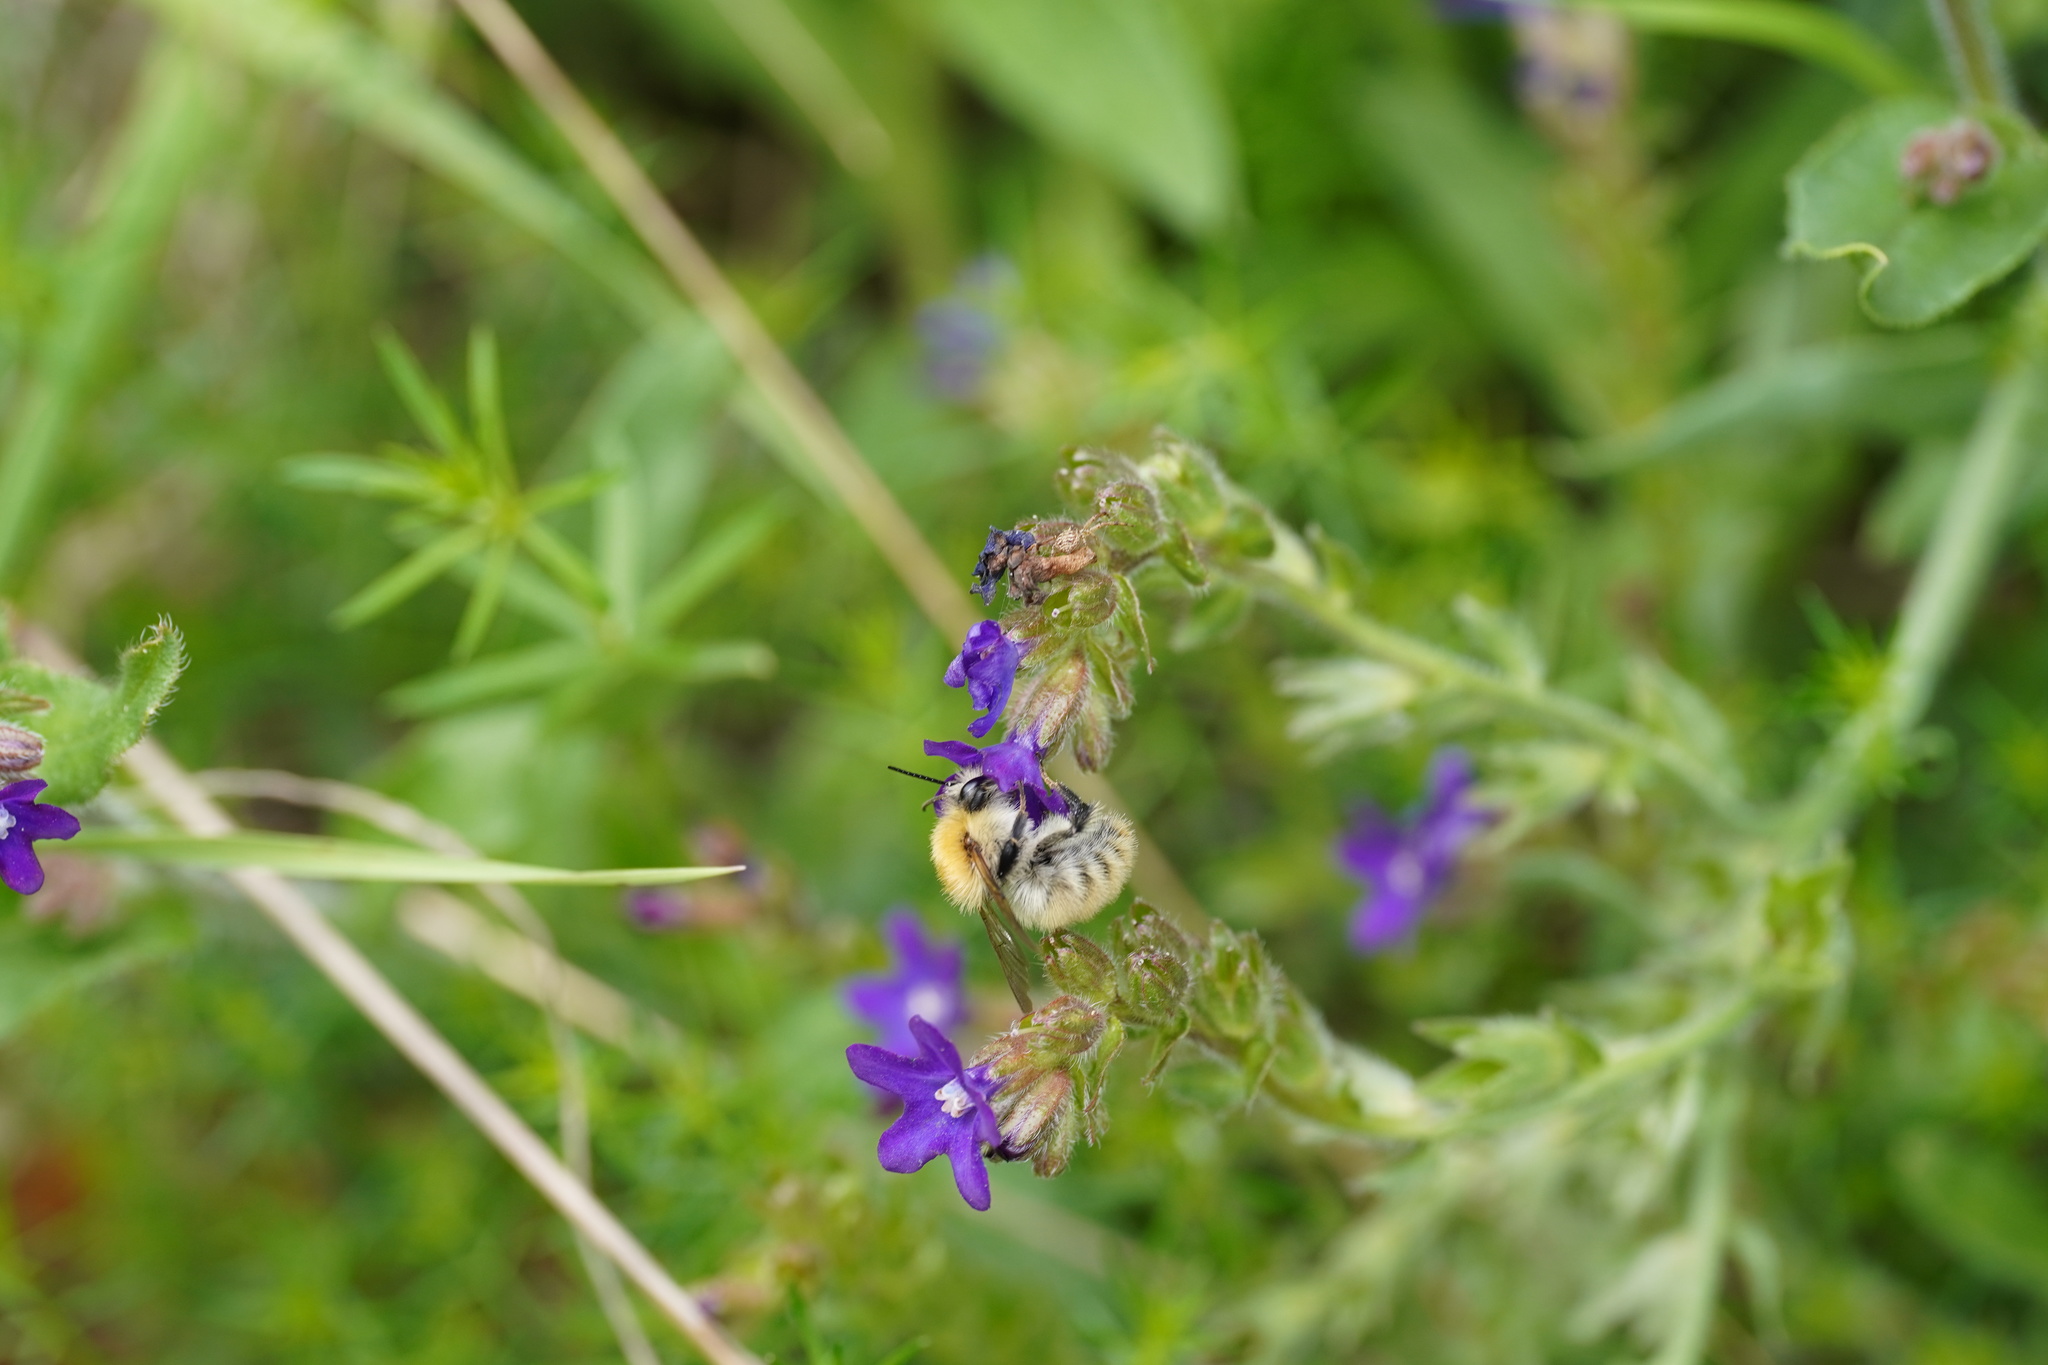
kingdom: Animalia
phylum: Arthropoda
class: Insecta
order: Hymenoptera
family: Apidae
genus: Bombus
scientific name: Bombus pascuorum
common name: Common carder bee
